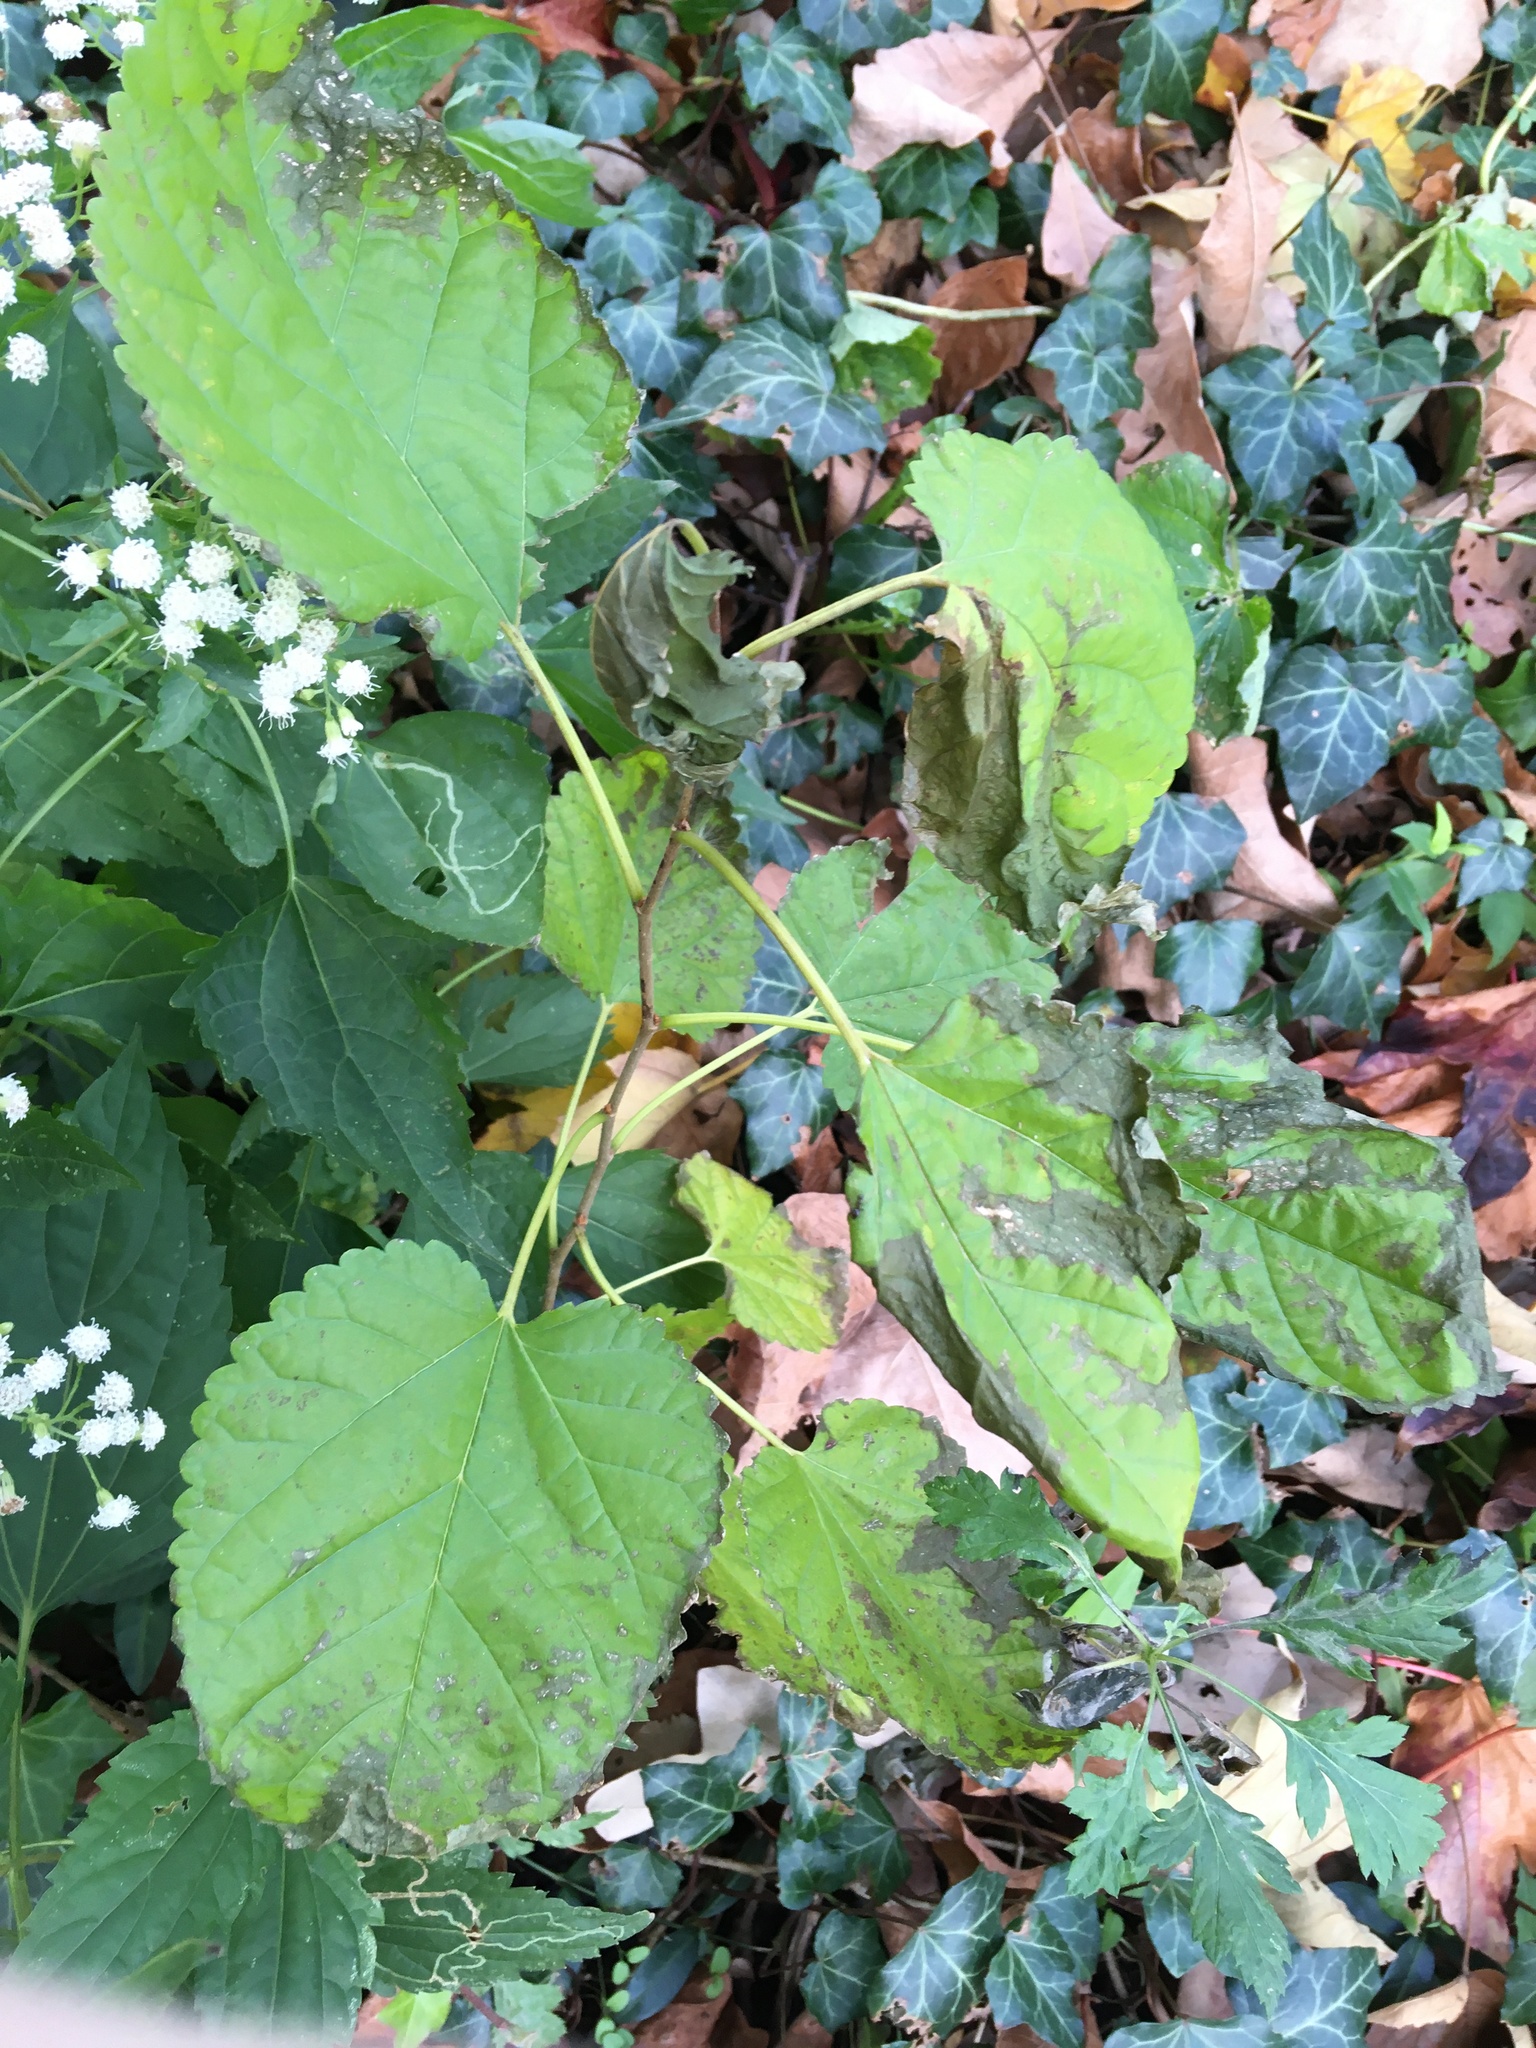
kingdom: Plantae
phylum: Tracheophyta
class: Magnoliopsida
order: Rosales
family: Moraceae
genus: Morus
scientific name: Morus alba
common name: White mulberry
